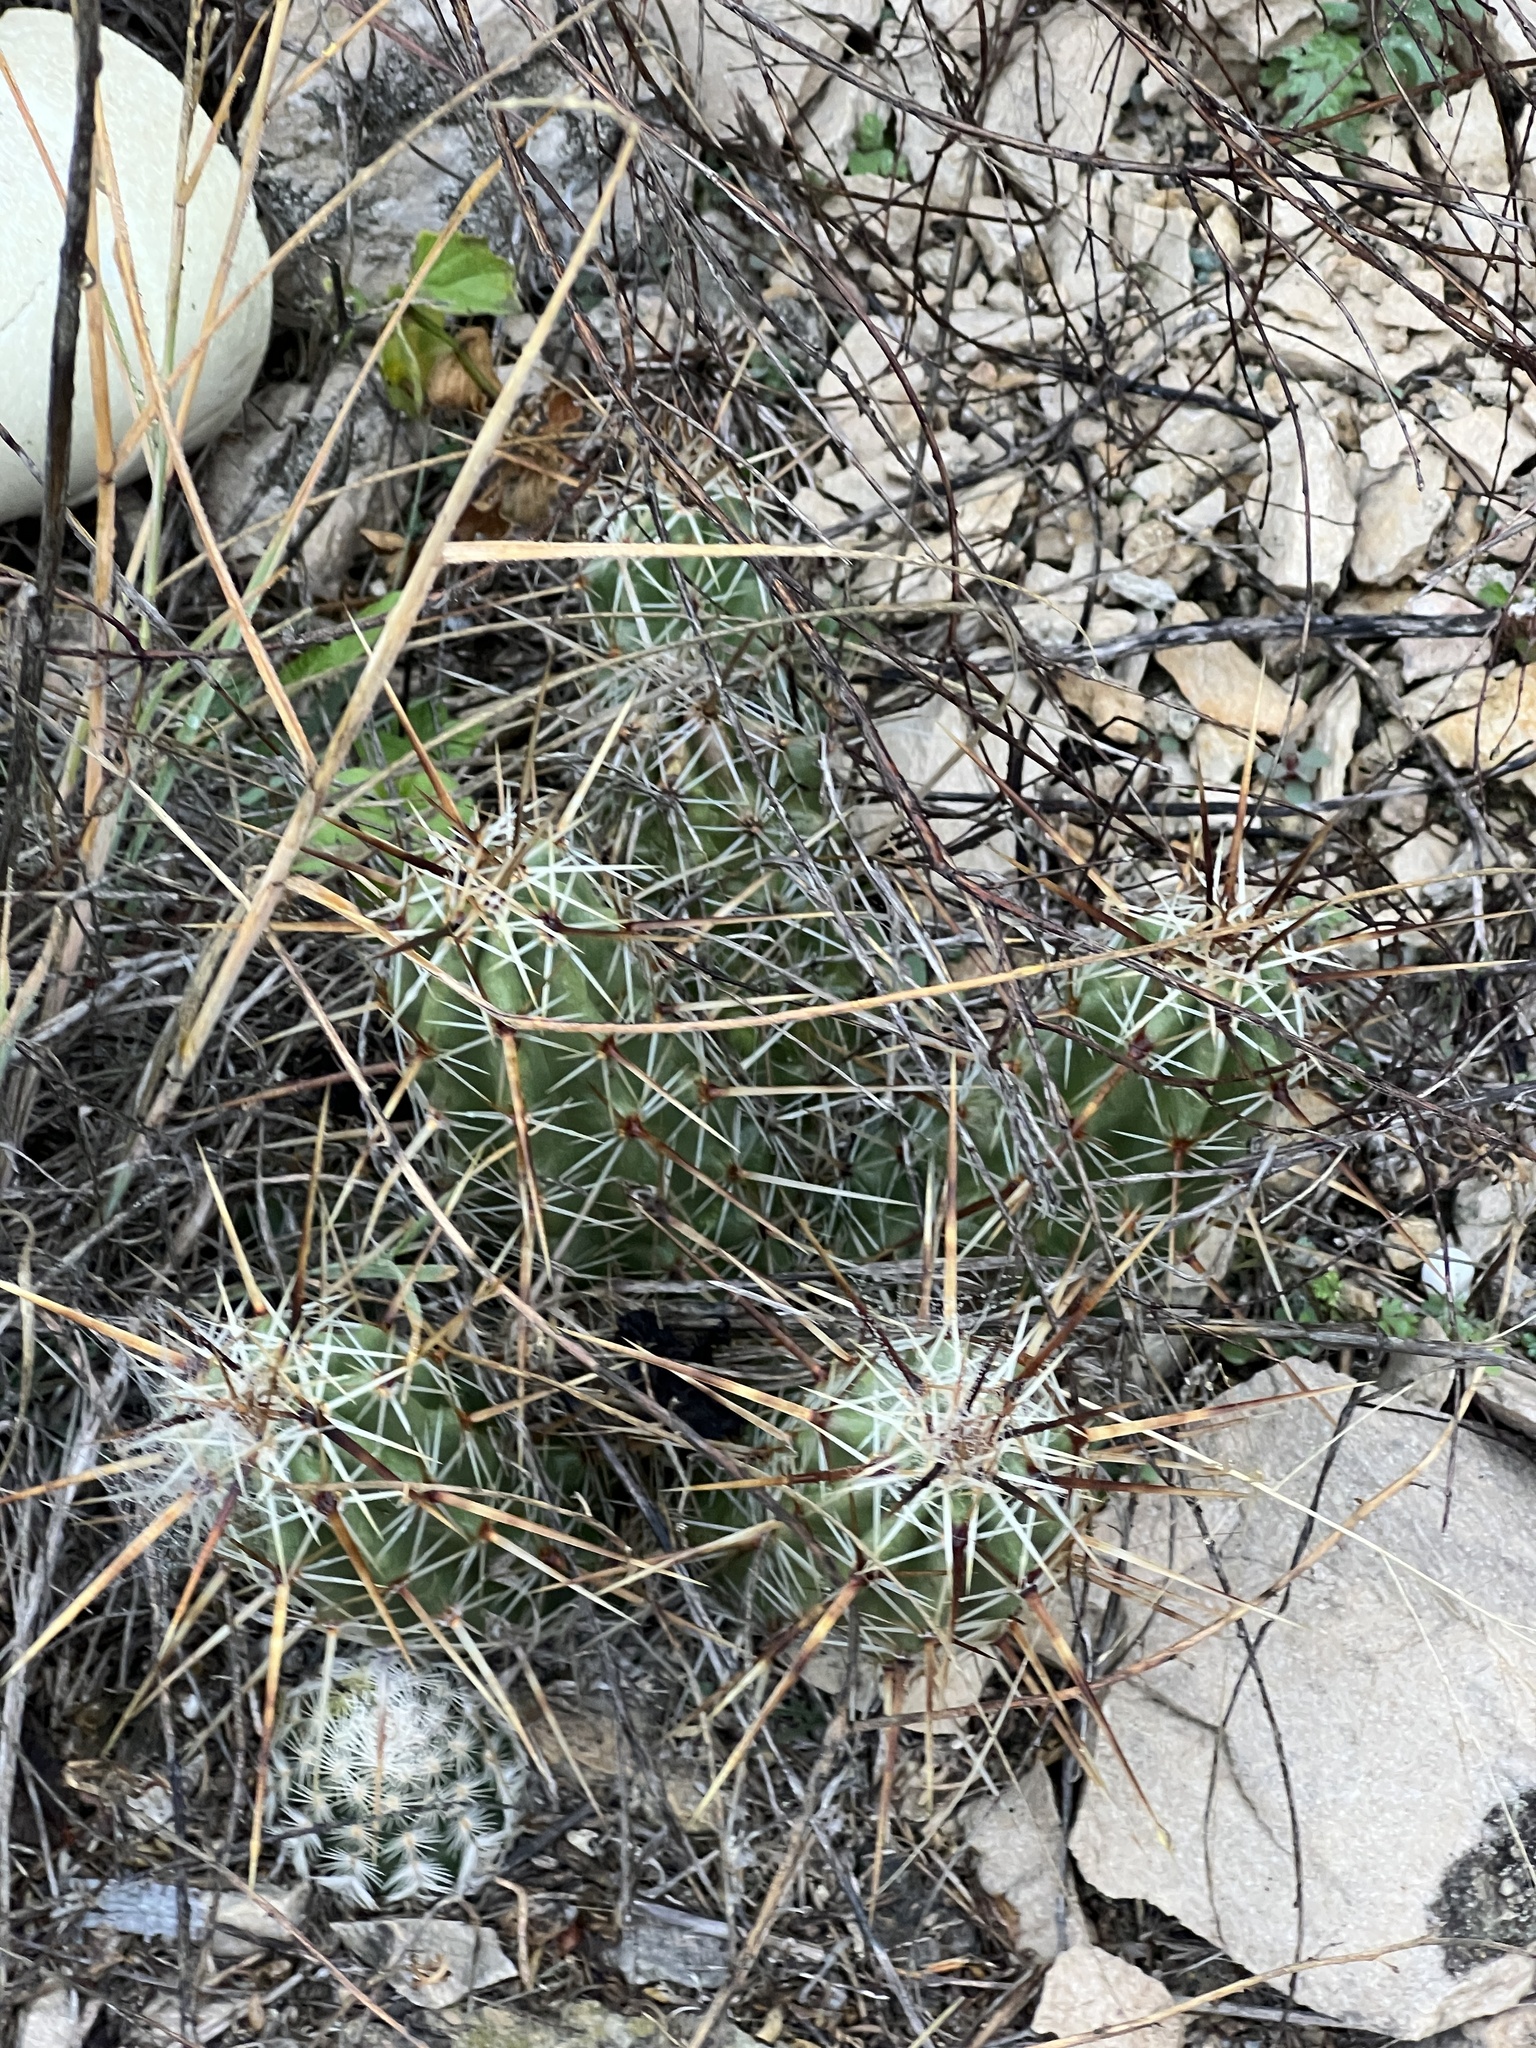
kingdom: Plantae
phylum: Tracheophyta
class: Magnoliopsida
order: Caryophyllales
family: Cactaceae
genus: Echinocereus
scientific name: Echinocereus enneacanthus
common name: Pitaya
